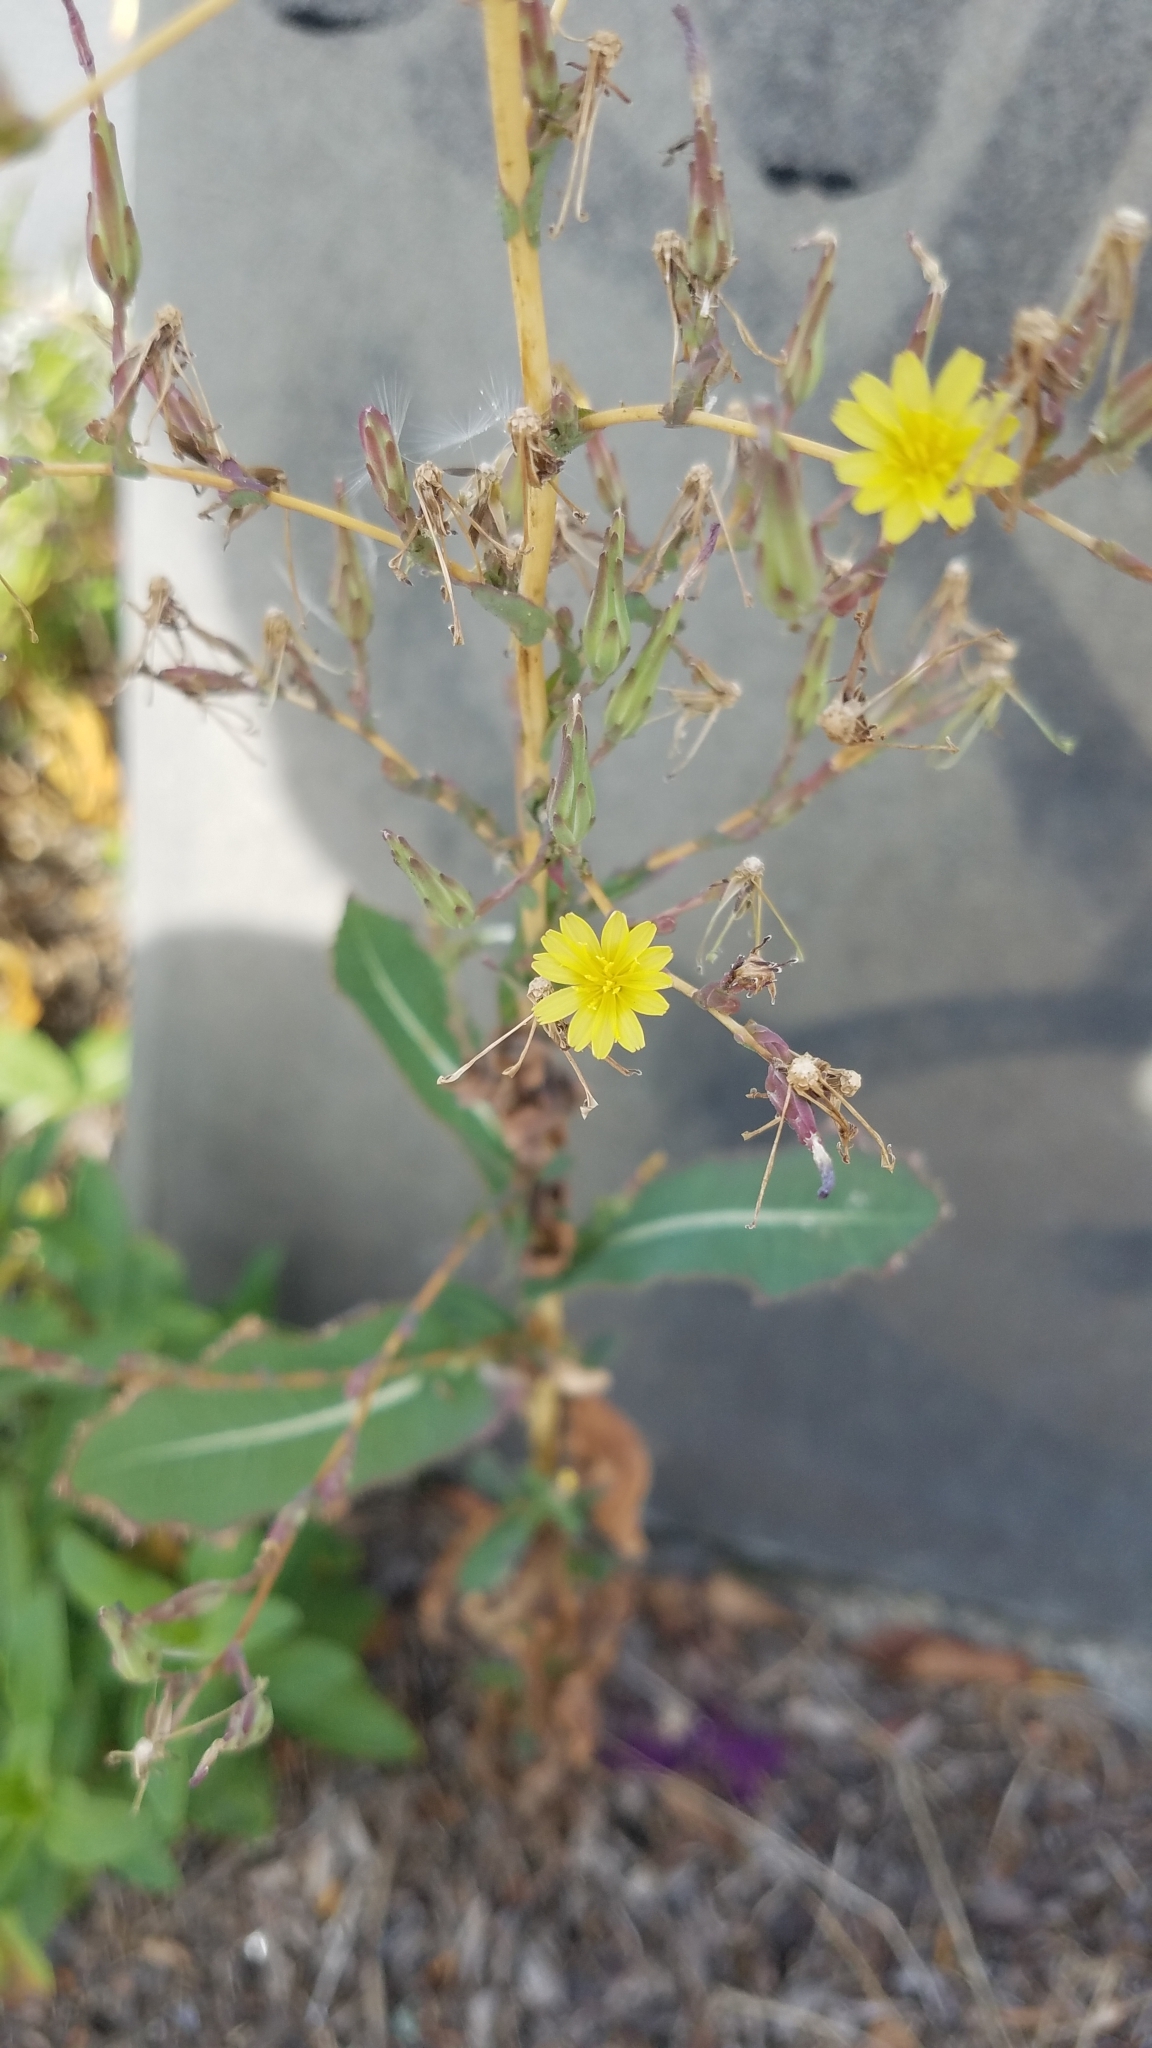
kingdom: Plantae
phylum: Tracheophyta
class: Magnoliopsida
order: Asterales
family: Asteraceae
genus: Lactuca
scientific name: Lactuca serriola
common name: Prickly lettuce
